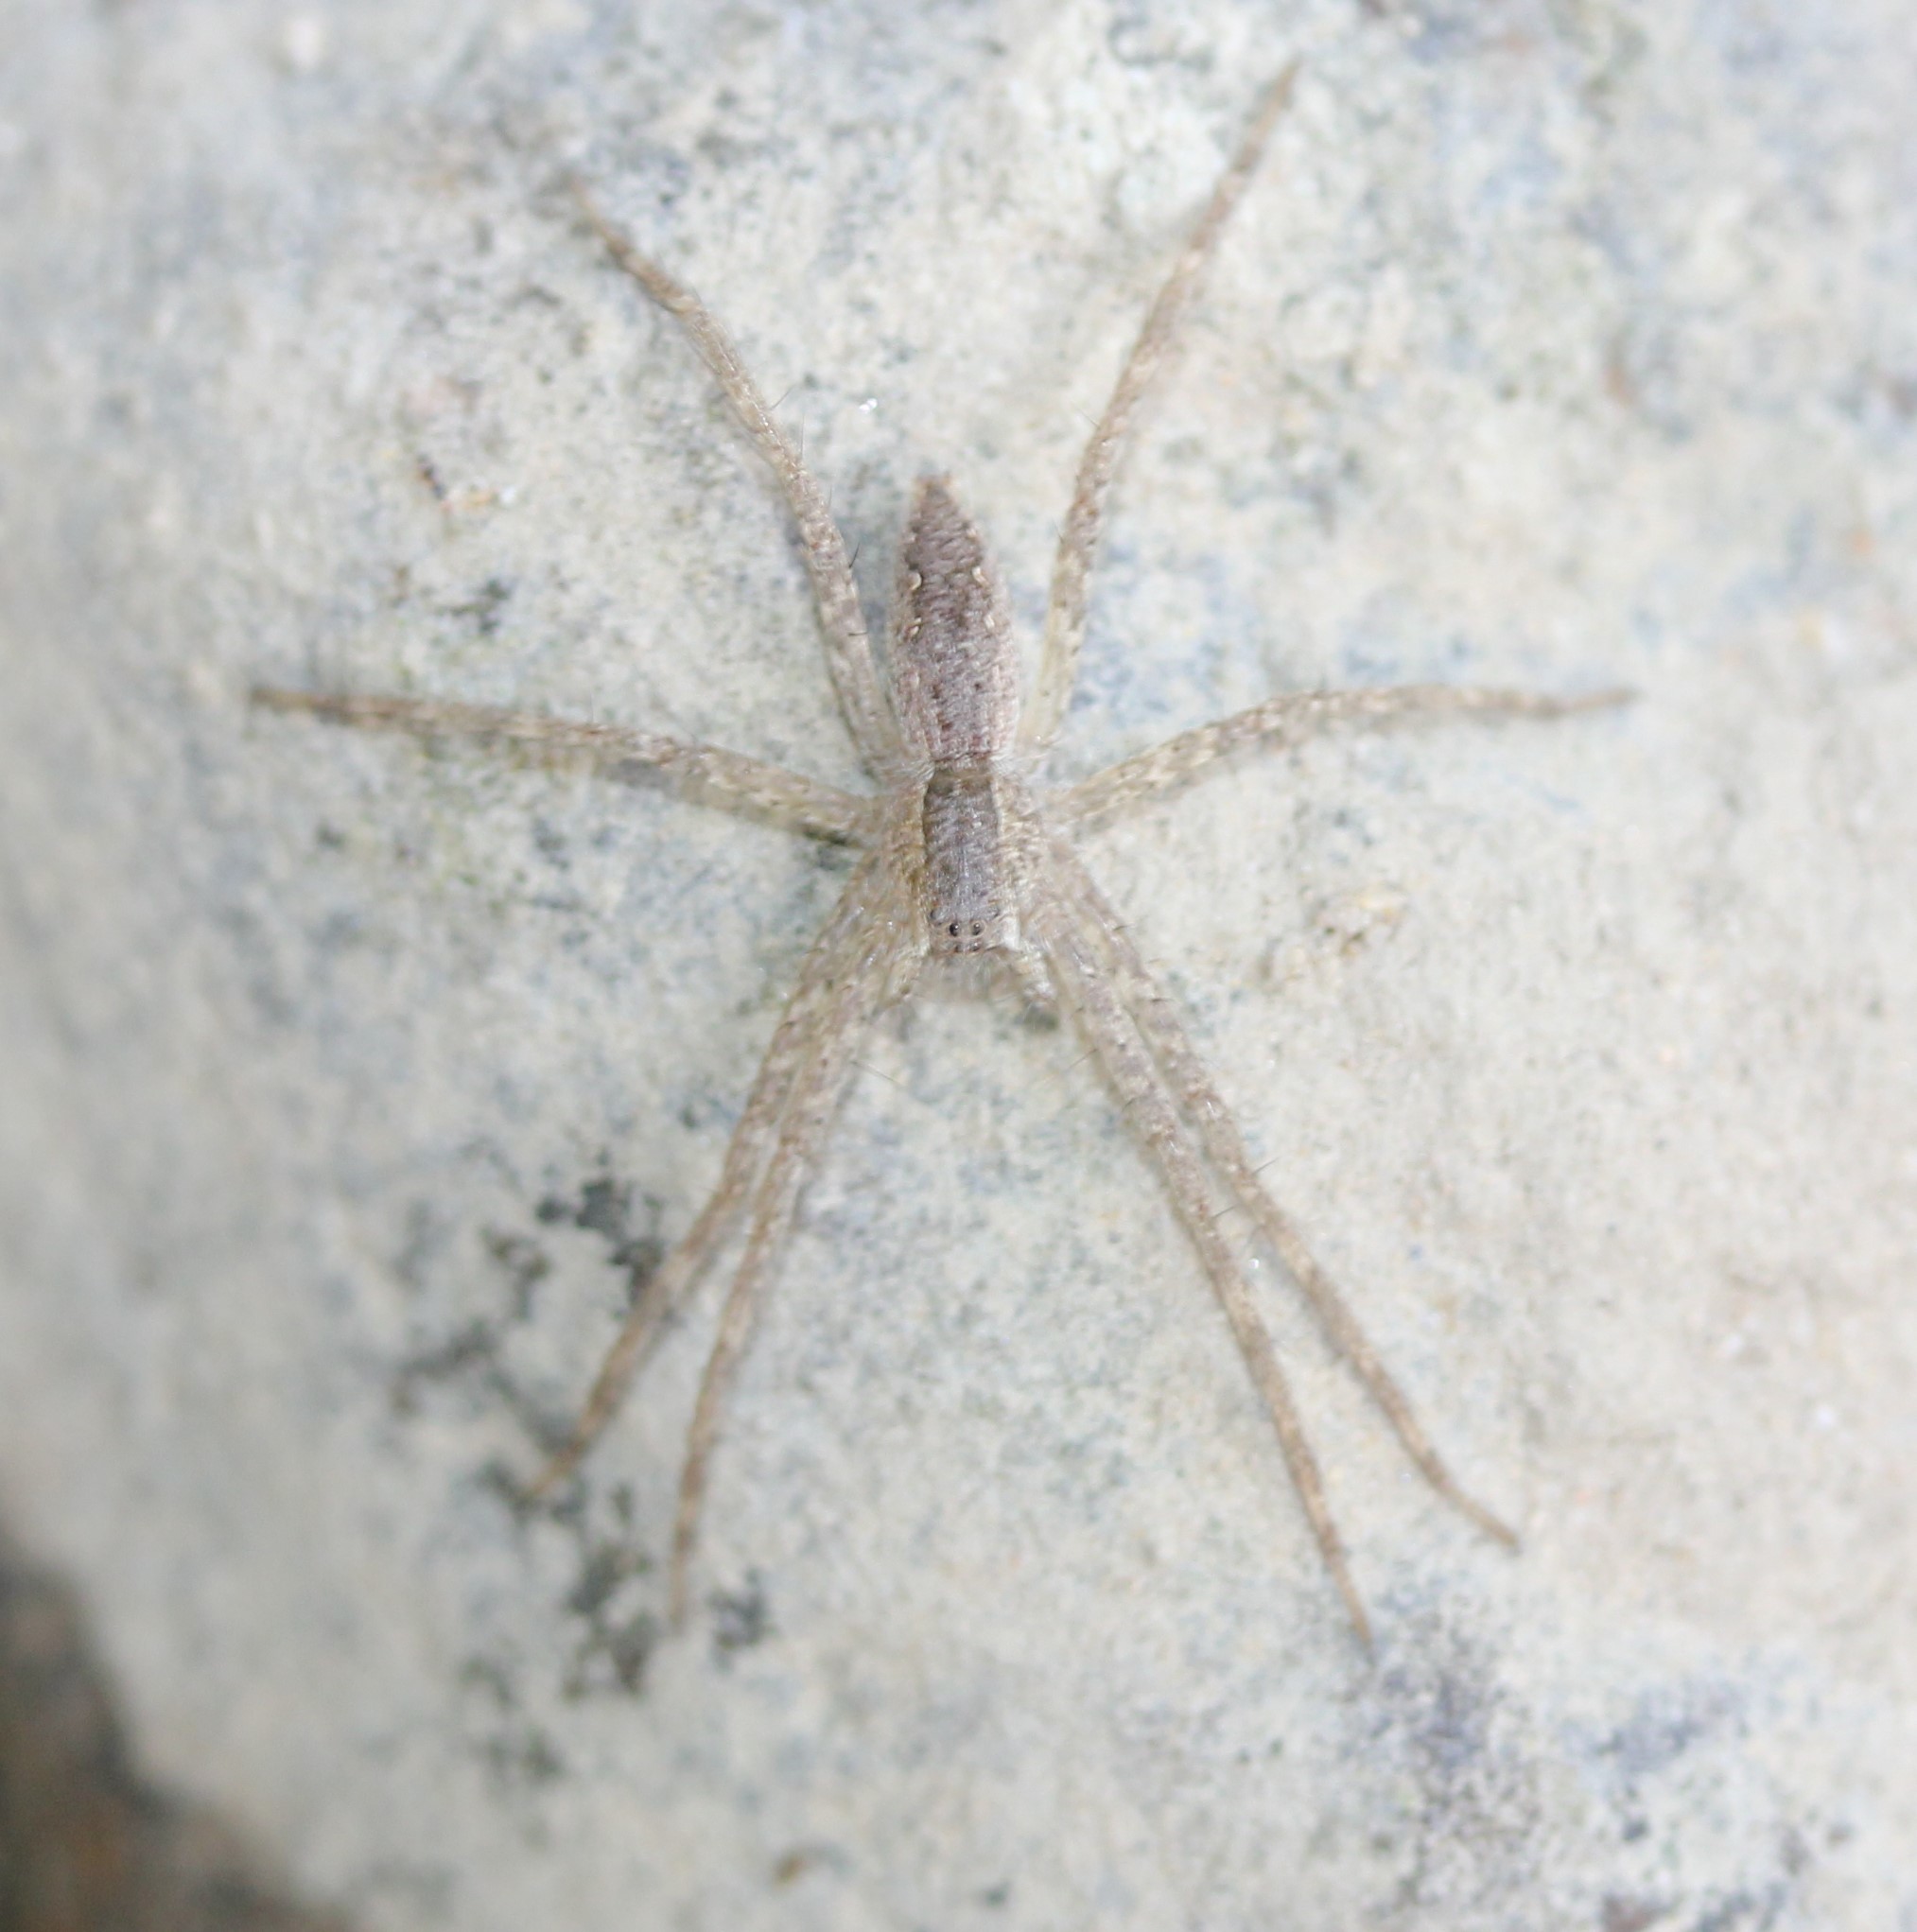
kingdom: Animalia
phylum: Arthropoda
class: Arachnida
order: Araneae
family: Pisauridae
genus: Pisaurina
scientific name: Pisaurina mira
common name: American nursery web spider
